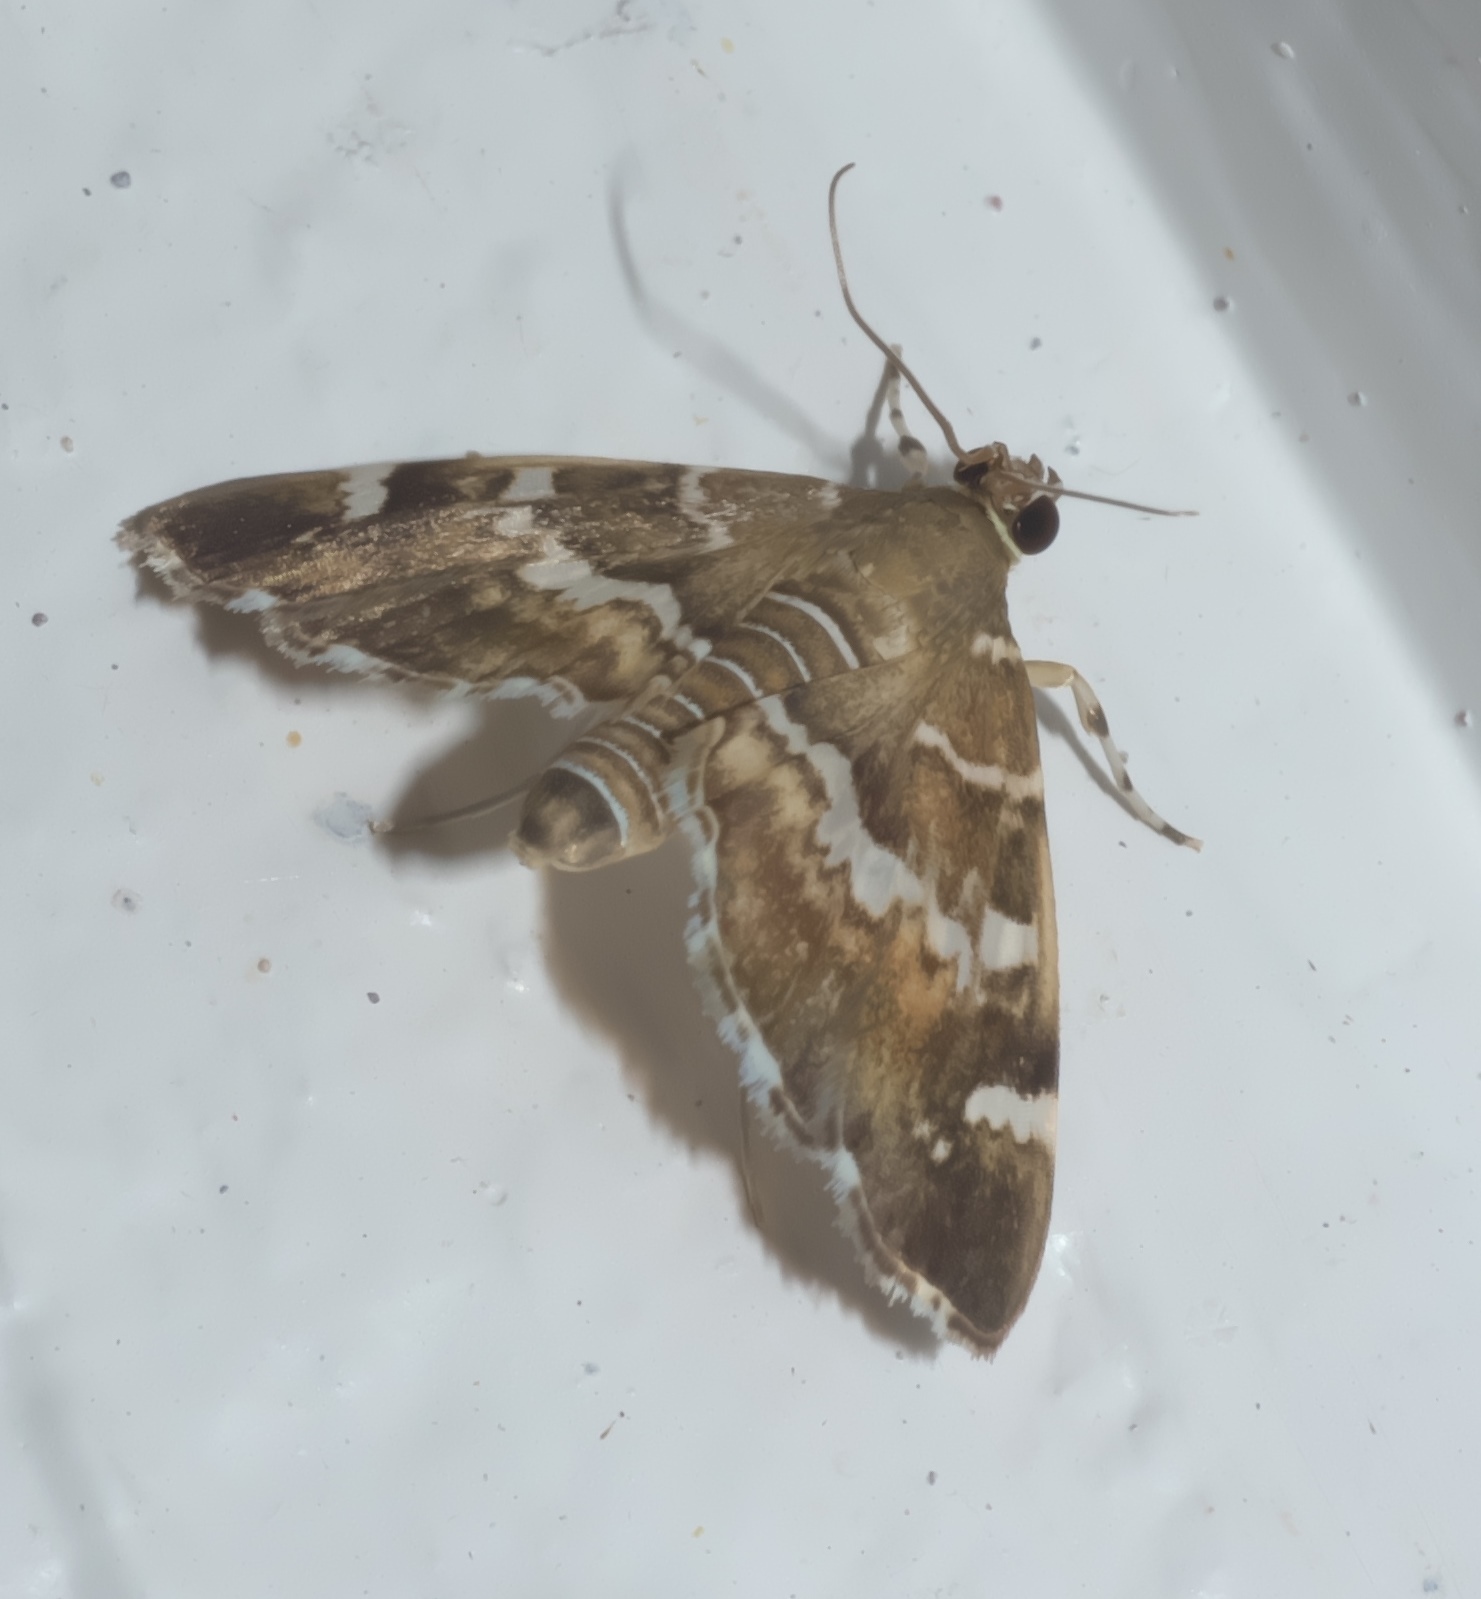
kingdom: Animalia
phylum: Arthropoda
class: Insecta
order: Lepidoptera
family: Crambidae
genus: Hymenia
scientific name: Hymenia perspectalis
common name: Spotted beet webworm
